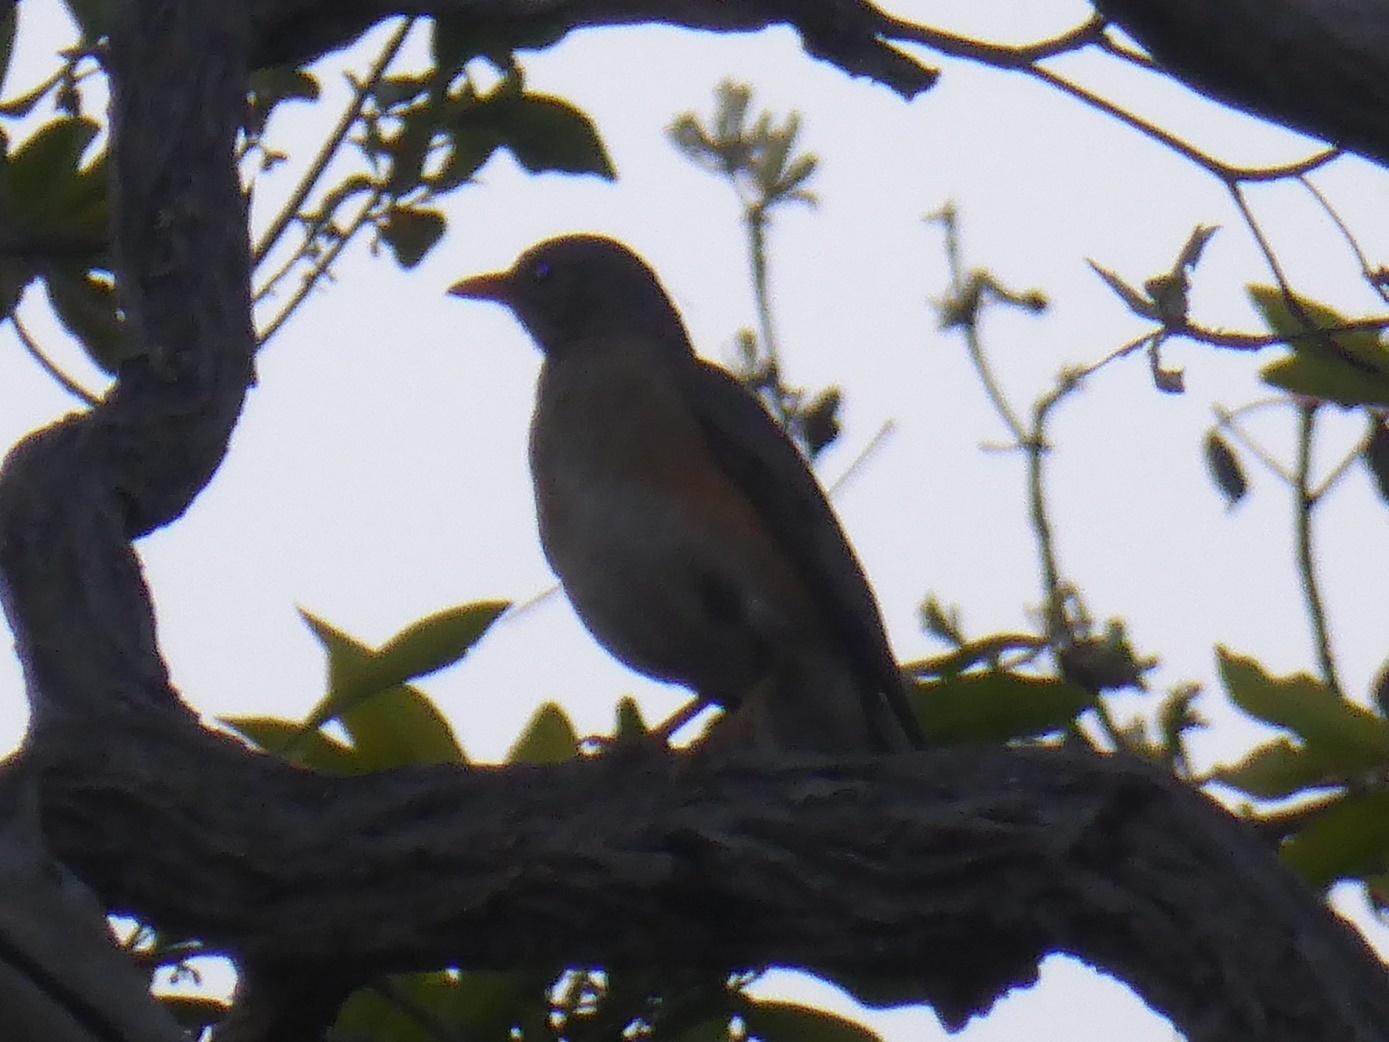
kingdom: Animalia
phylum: Chordata
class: Aves
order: Passeriformes
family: Turdidae
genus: Turdus
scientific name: Turdus libonyana
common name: Kurrichane thrush
